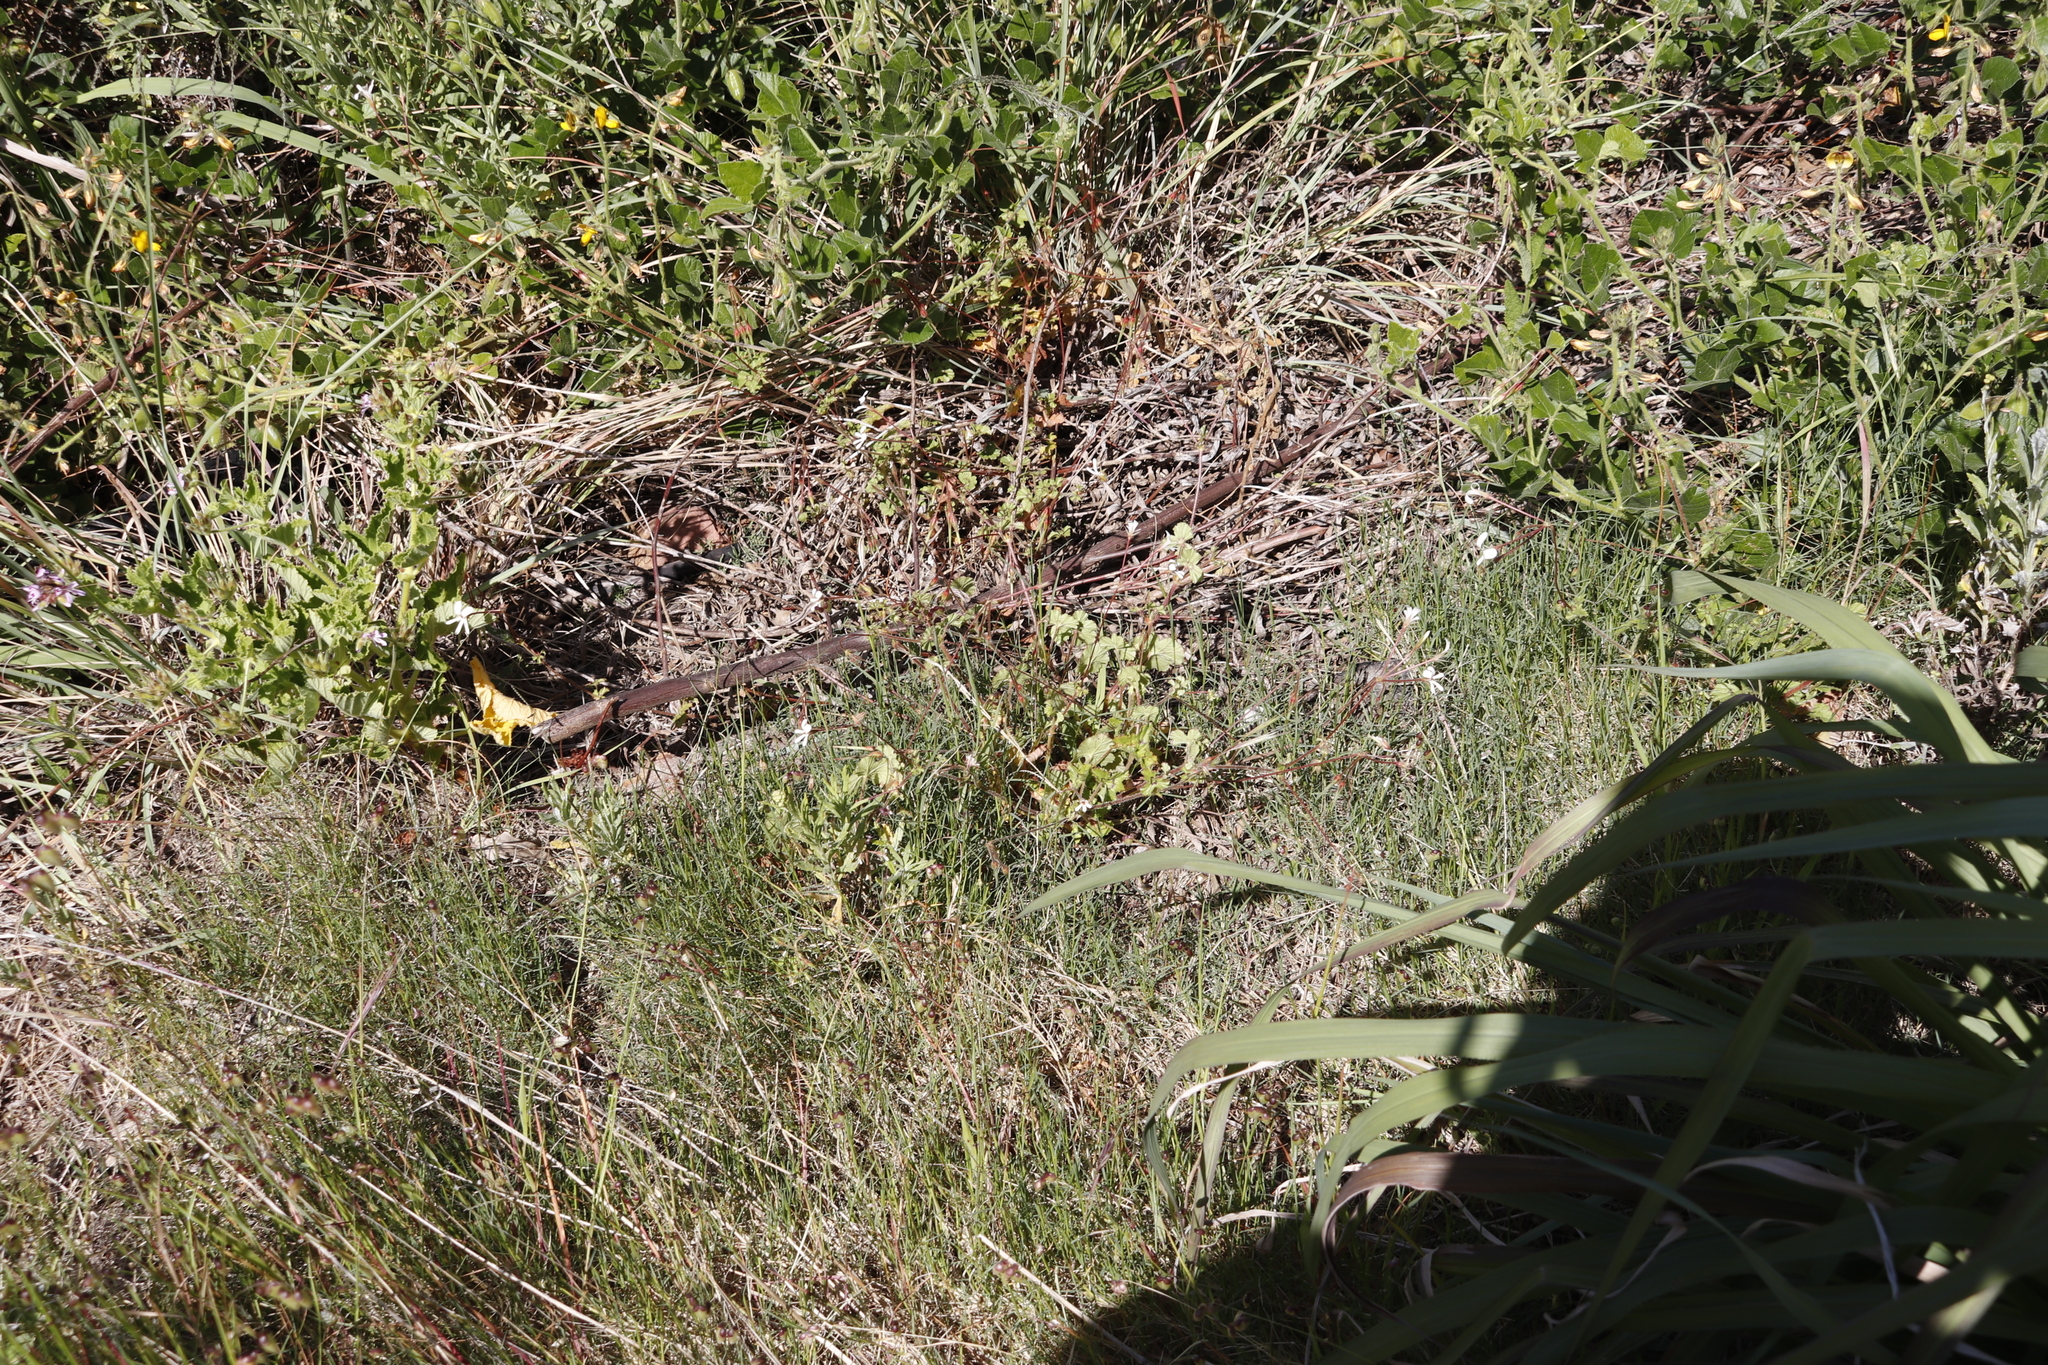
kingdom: Plantae
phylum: Tracheophyta
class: Magnoliopsida
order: Geraniales
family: Geraniaceae
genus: Pelargonium
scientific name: Pelargonium elongatum
